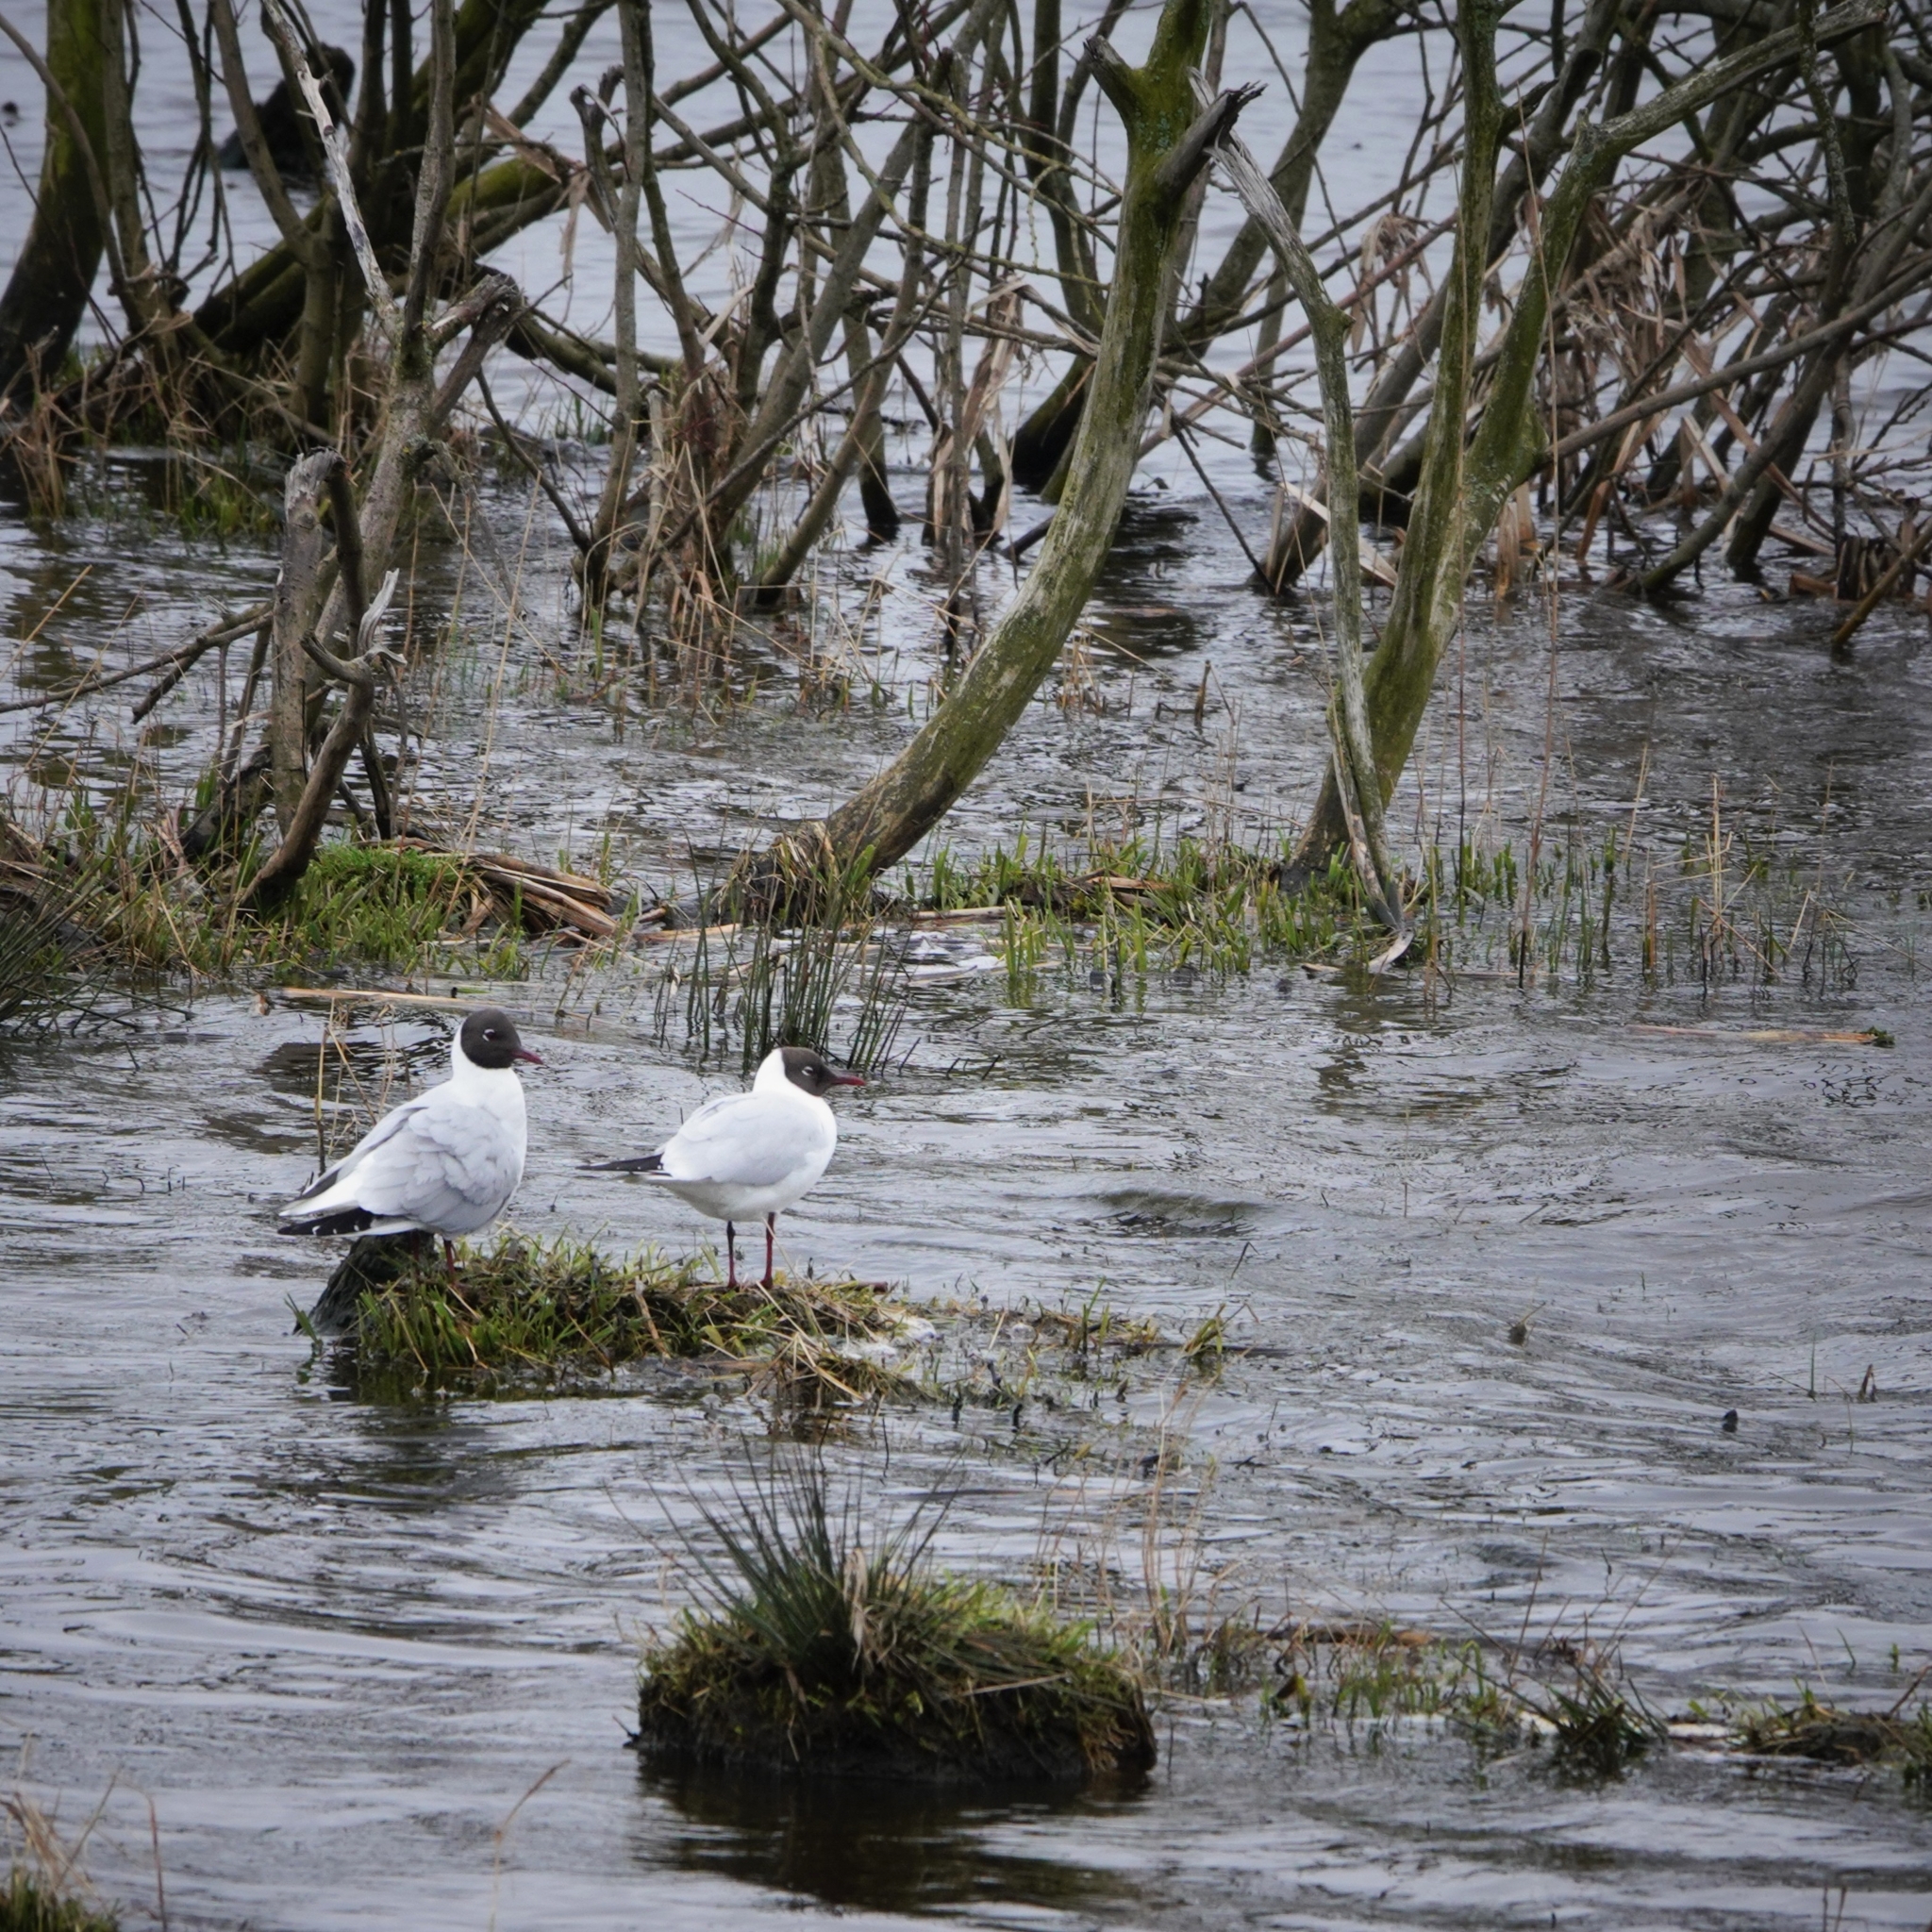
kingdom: Animalia
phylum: Chordata
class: Aves
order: Charadriiformes
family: Laridae
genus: Chroicocephalus
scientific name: Chroicocephalus ridibundus
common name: Black-headed gull
